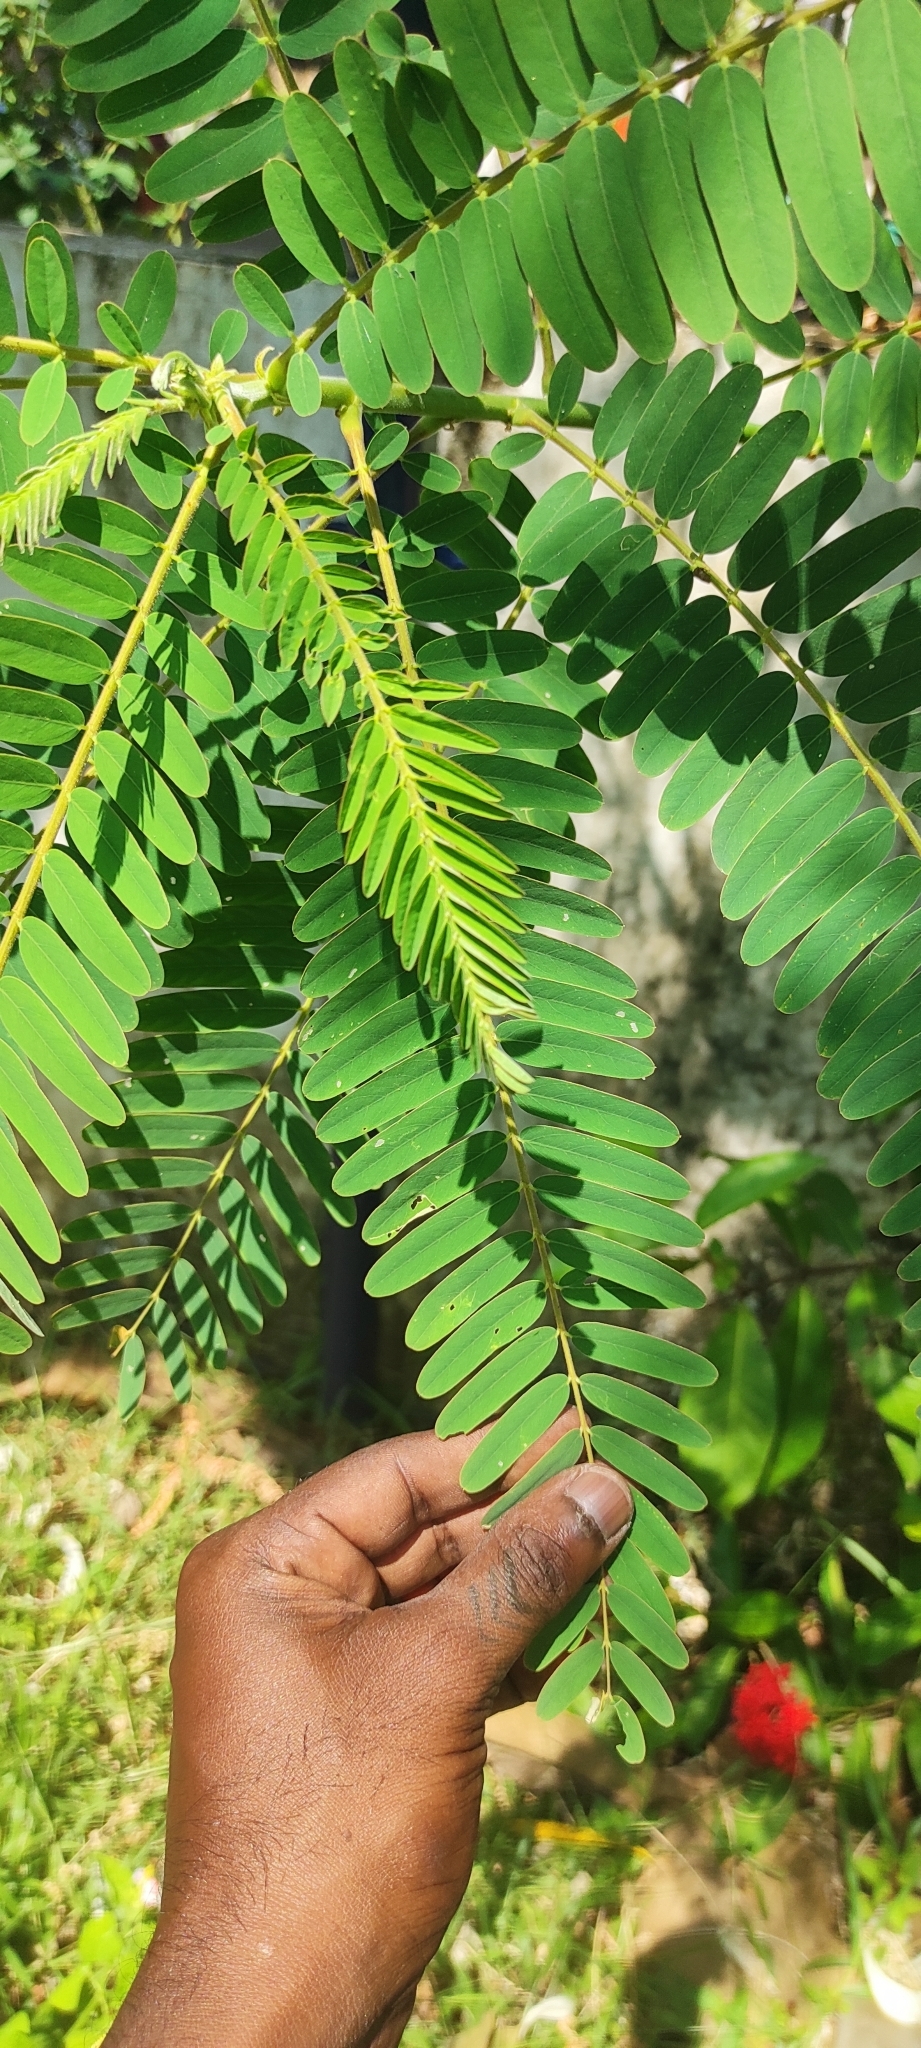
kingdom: Plantae
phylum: Tracheophyta
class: Magnoliopsida
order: Fabales
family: Fabaceae
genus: Sesbania
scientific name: Sesbania grandiflora
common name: Vegetable-hummingbird
